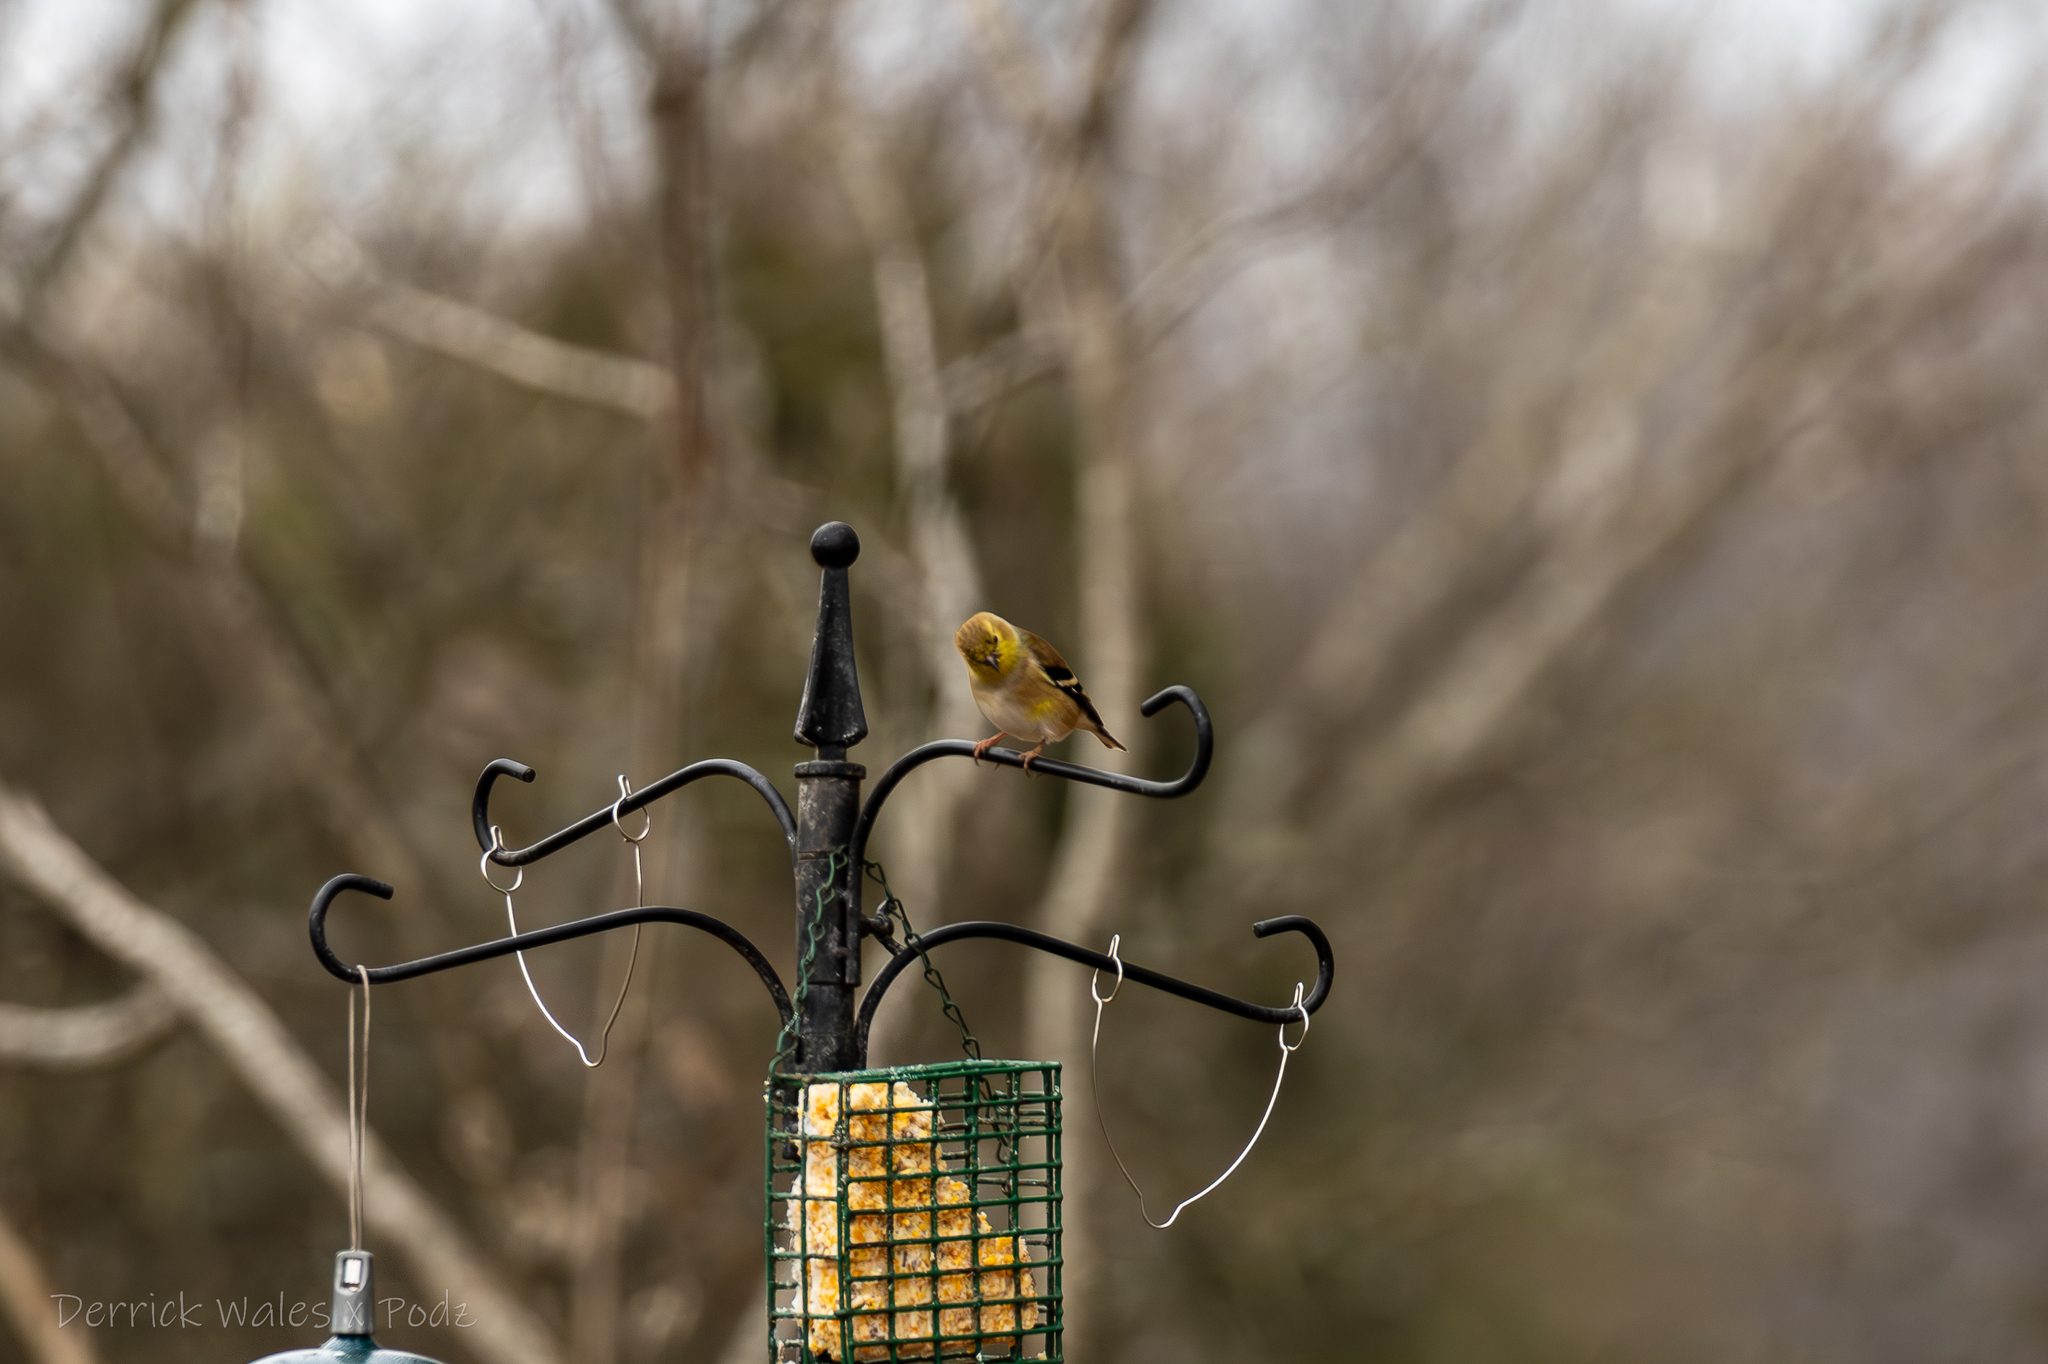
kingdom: Animalia
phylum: Chordata
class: Aves
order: Passeriformes
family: Fringillidae
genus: Spinus
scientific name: Spinus tristis
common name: American goldfinch
